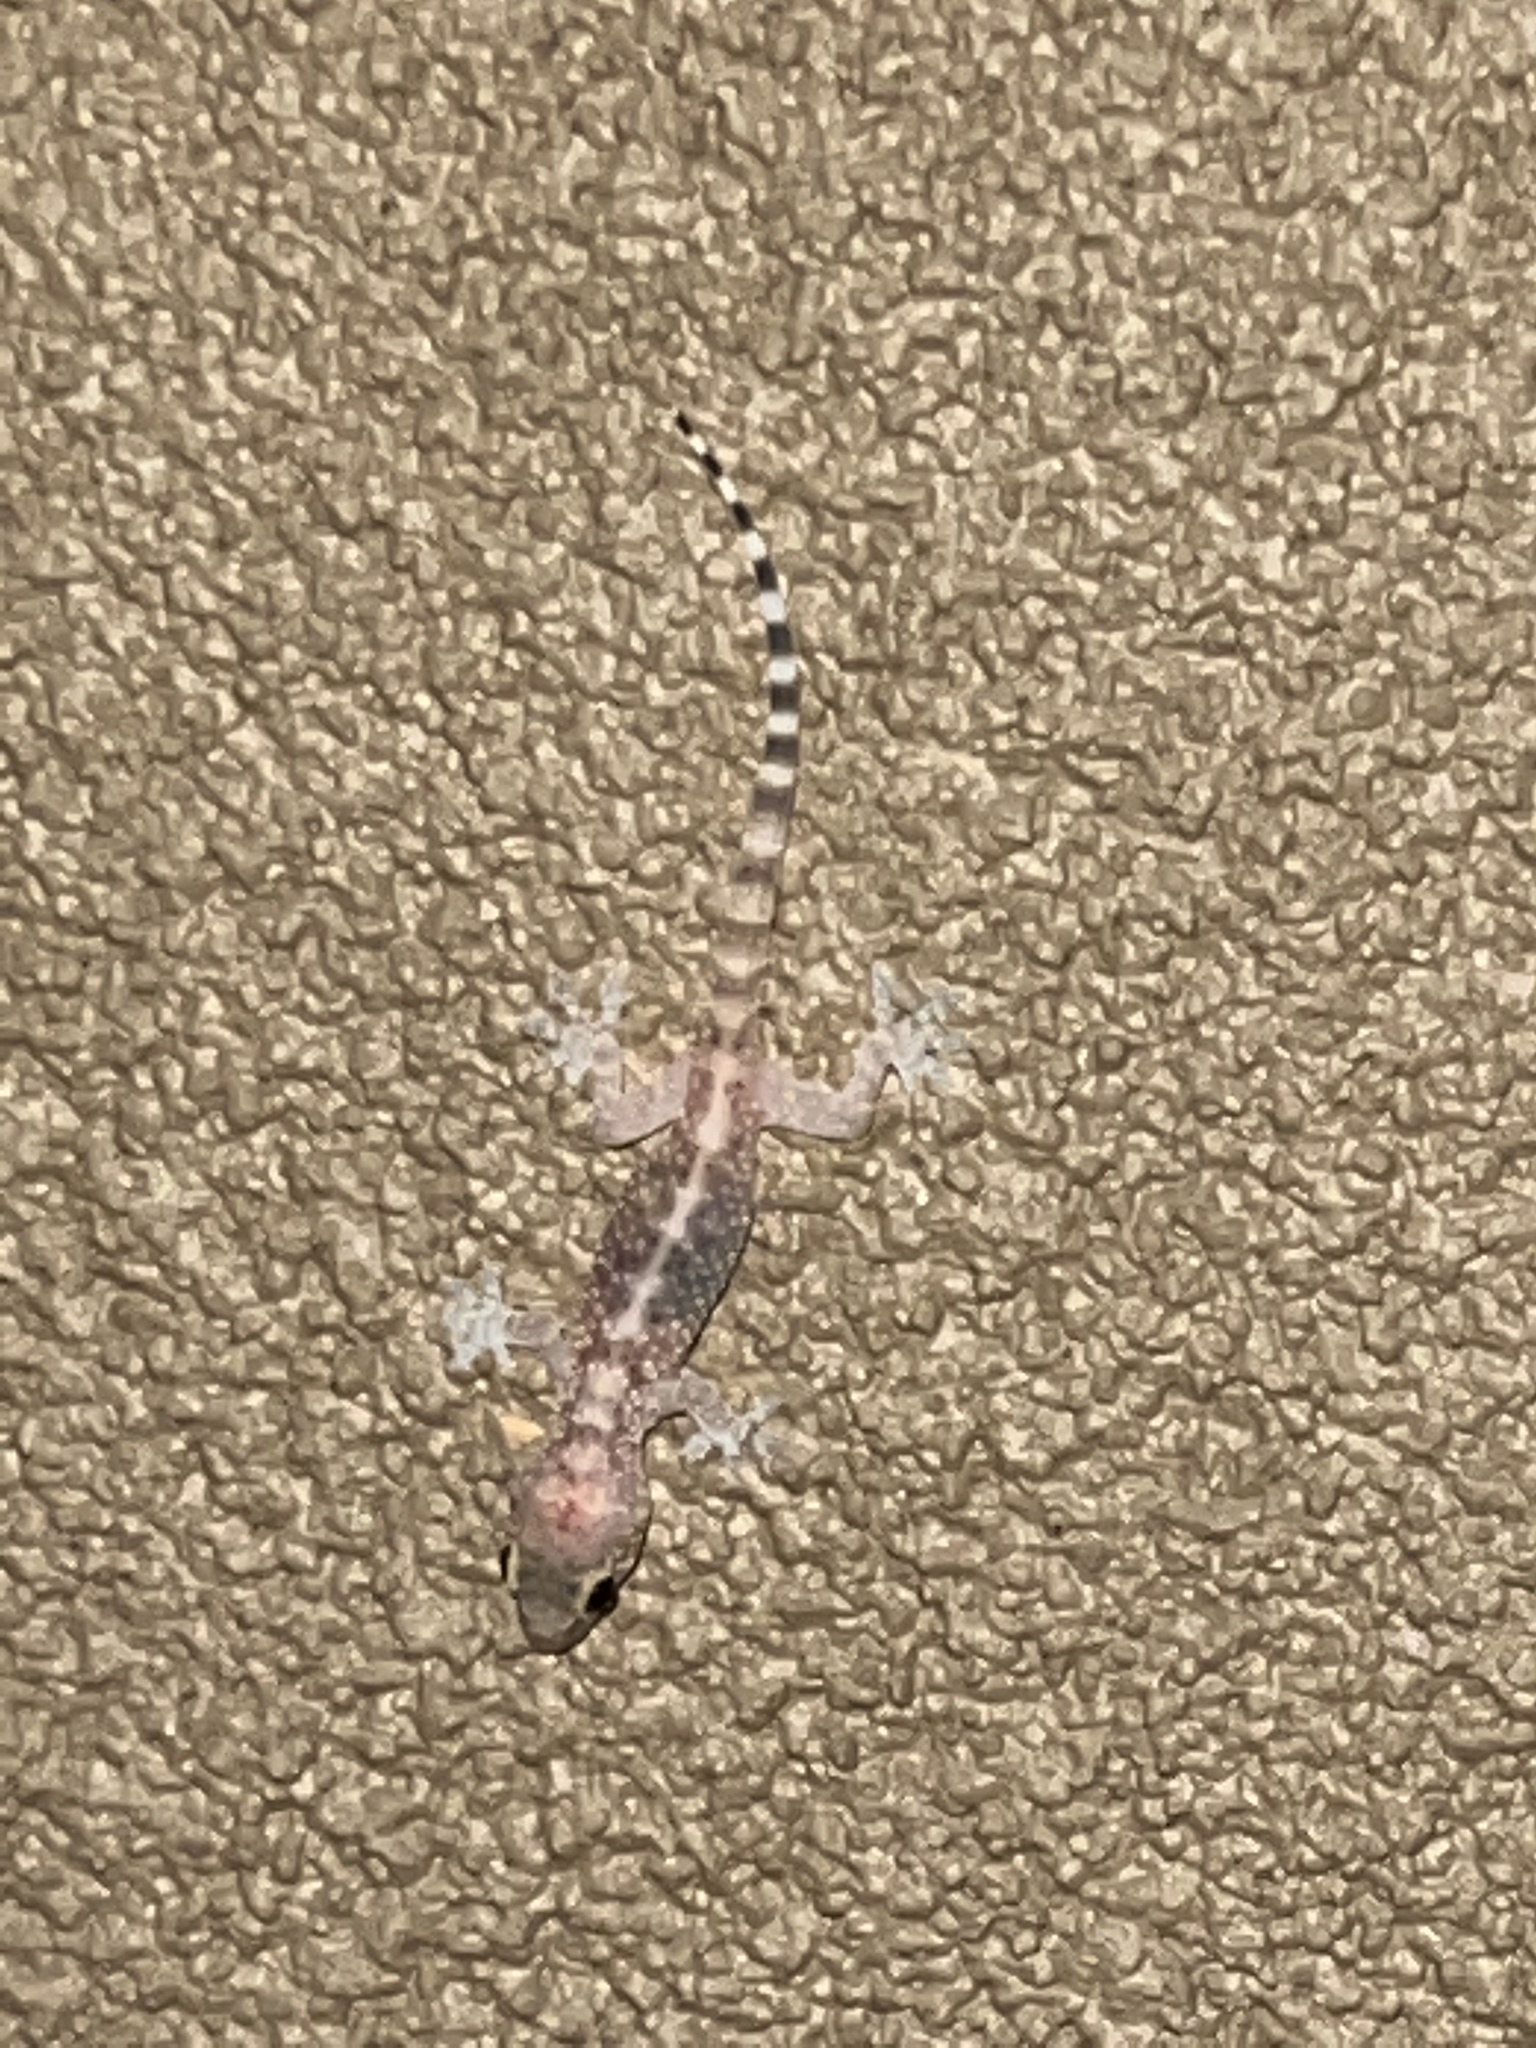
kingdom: Animalia
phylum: Chordata
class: Squamata
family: Gekkonidae
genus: Hemidactylus
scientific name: Hemidactylus turcicus
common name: Turkish gecko
